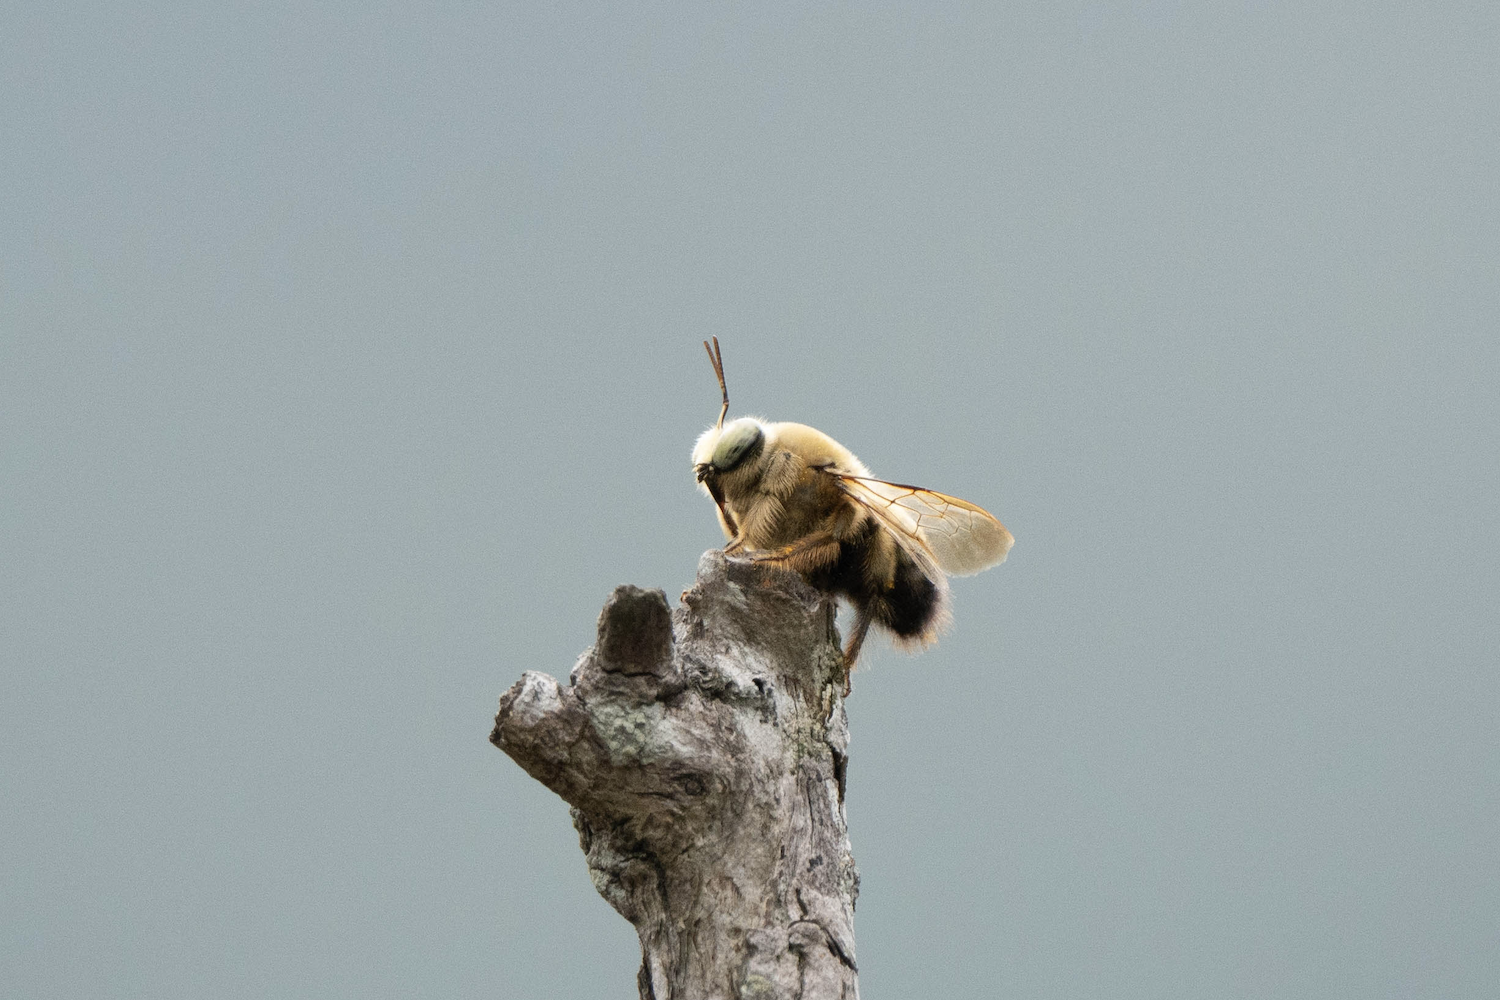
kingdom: Animalia
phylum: Arthropoda
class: Insecta
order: Hymenoptera
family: Apidae
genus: Xylocopa
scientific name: Xylocopa dejeanii
